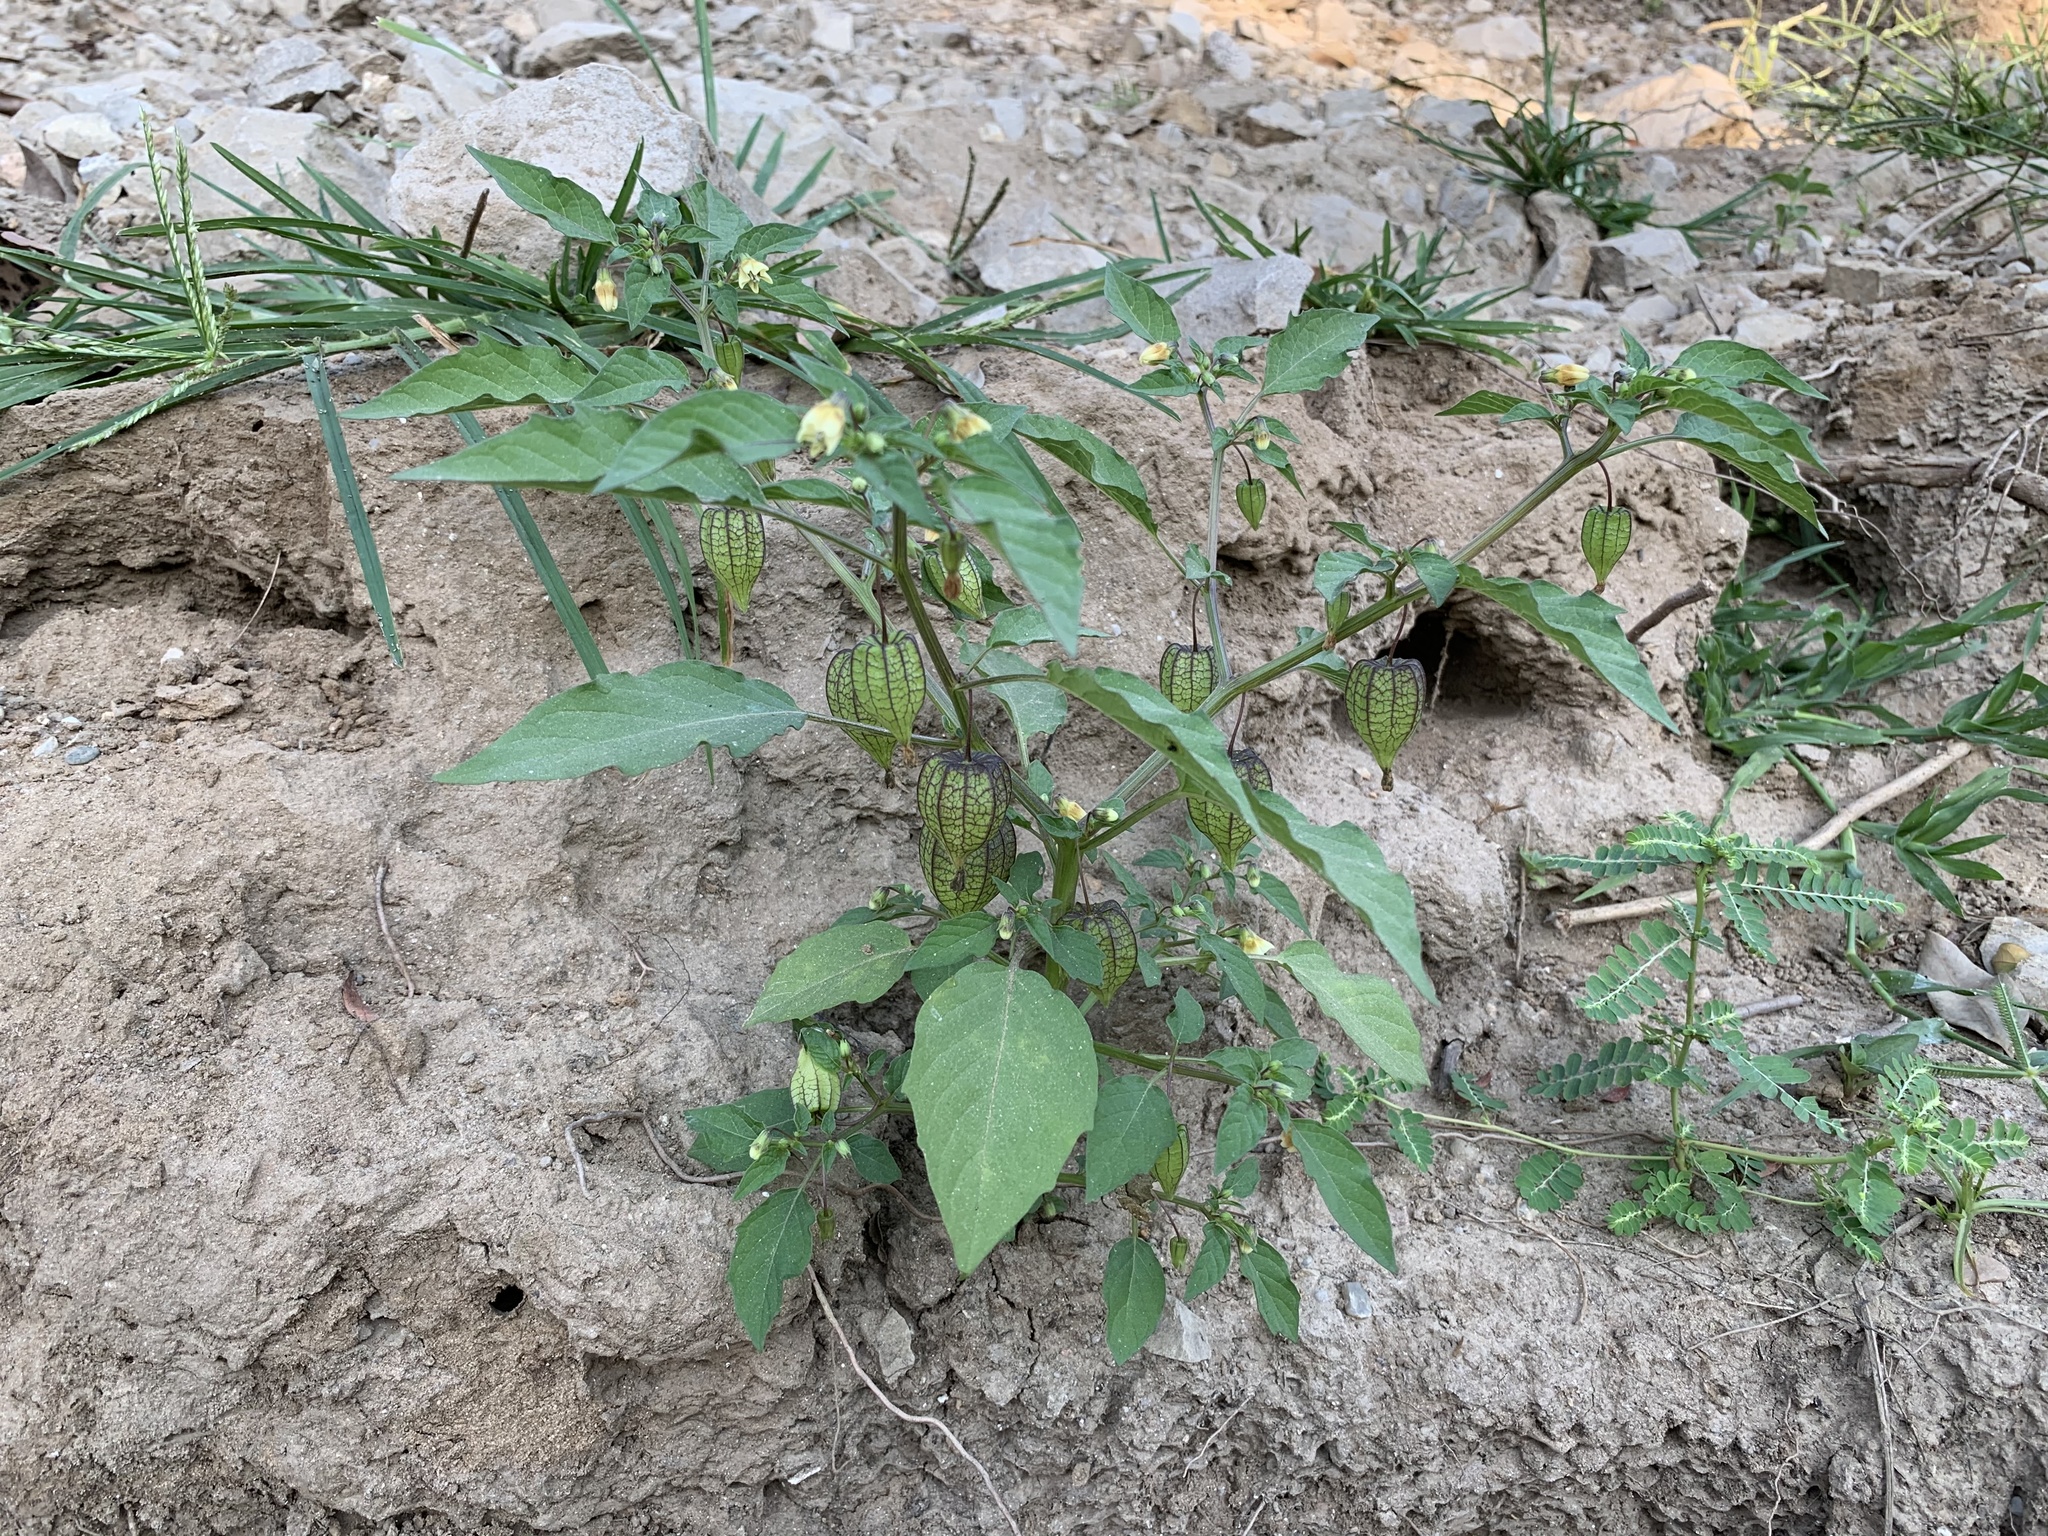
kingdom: Plantae
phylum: Tracheophyta
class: Magnoliopsida
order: Solanales
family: Solanaceae
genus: Physalis
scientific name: Physalis angulata
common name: Angular winter-cherry
